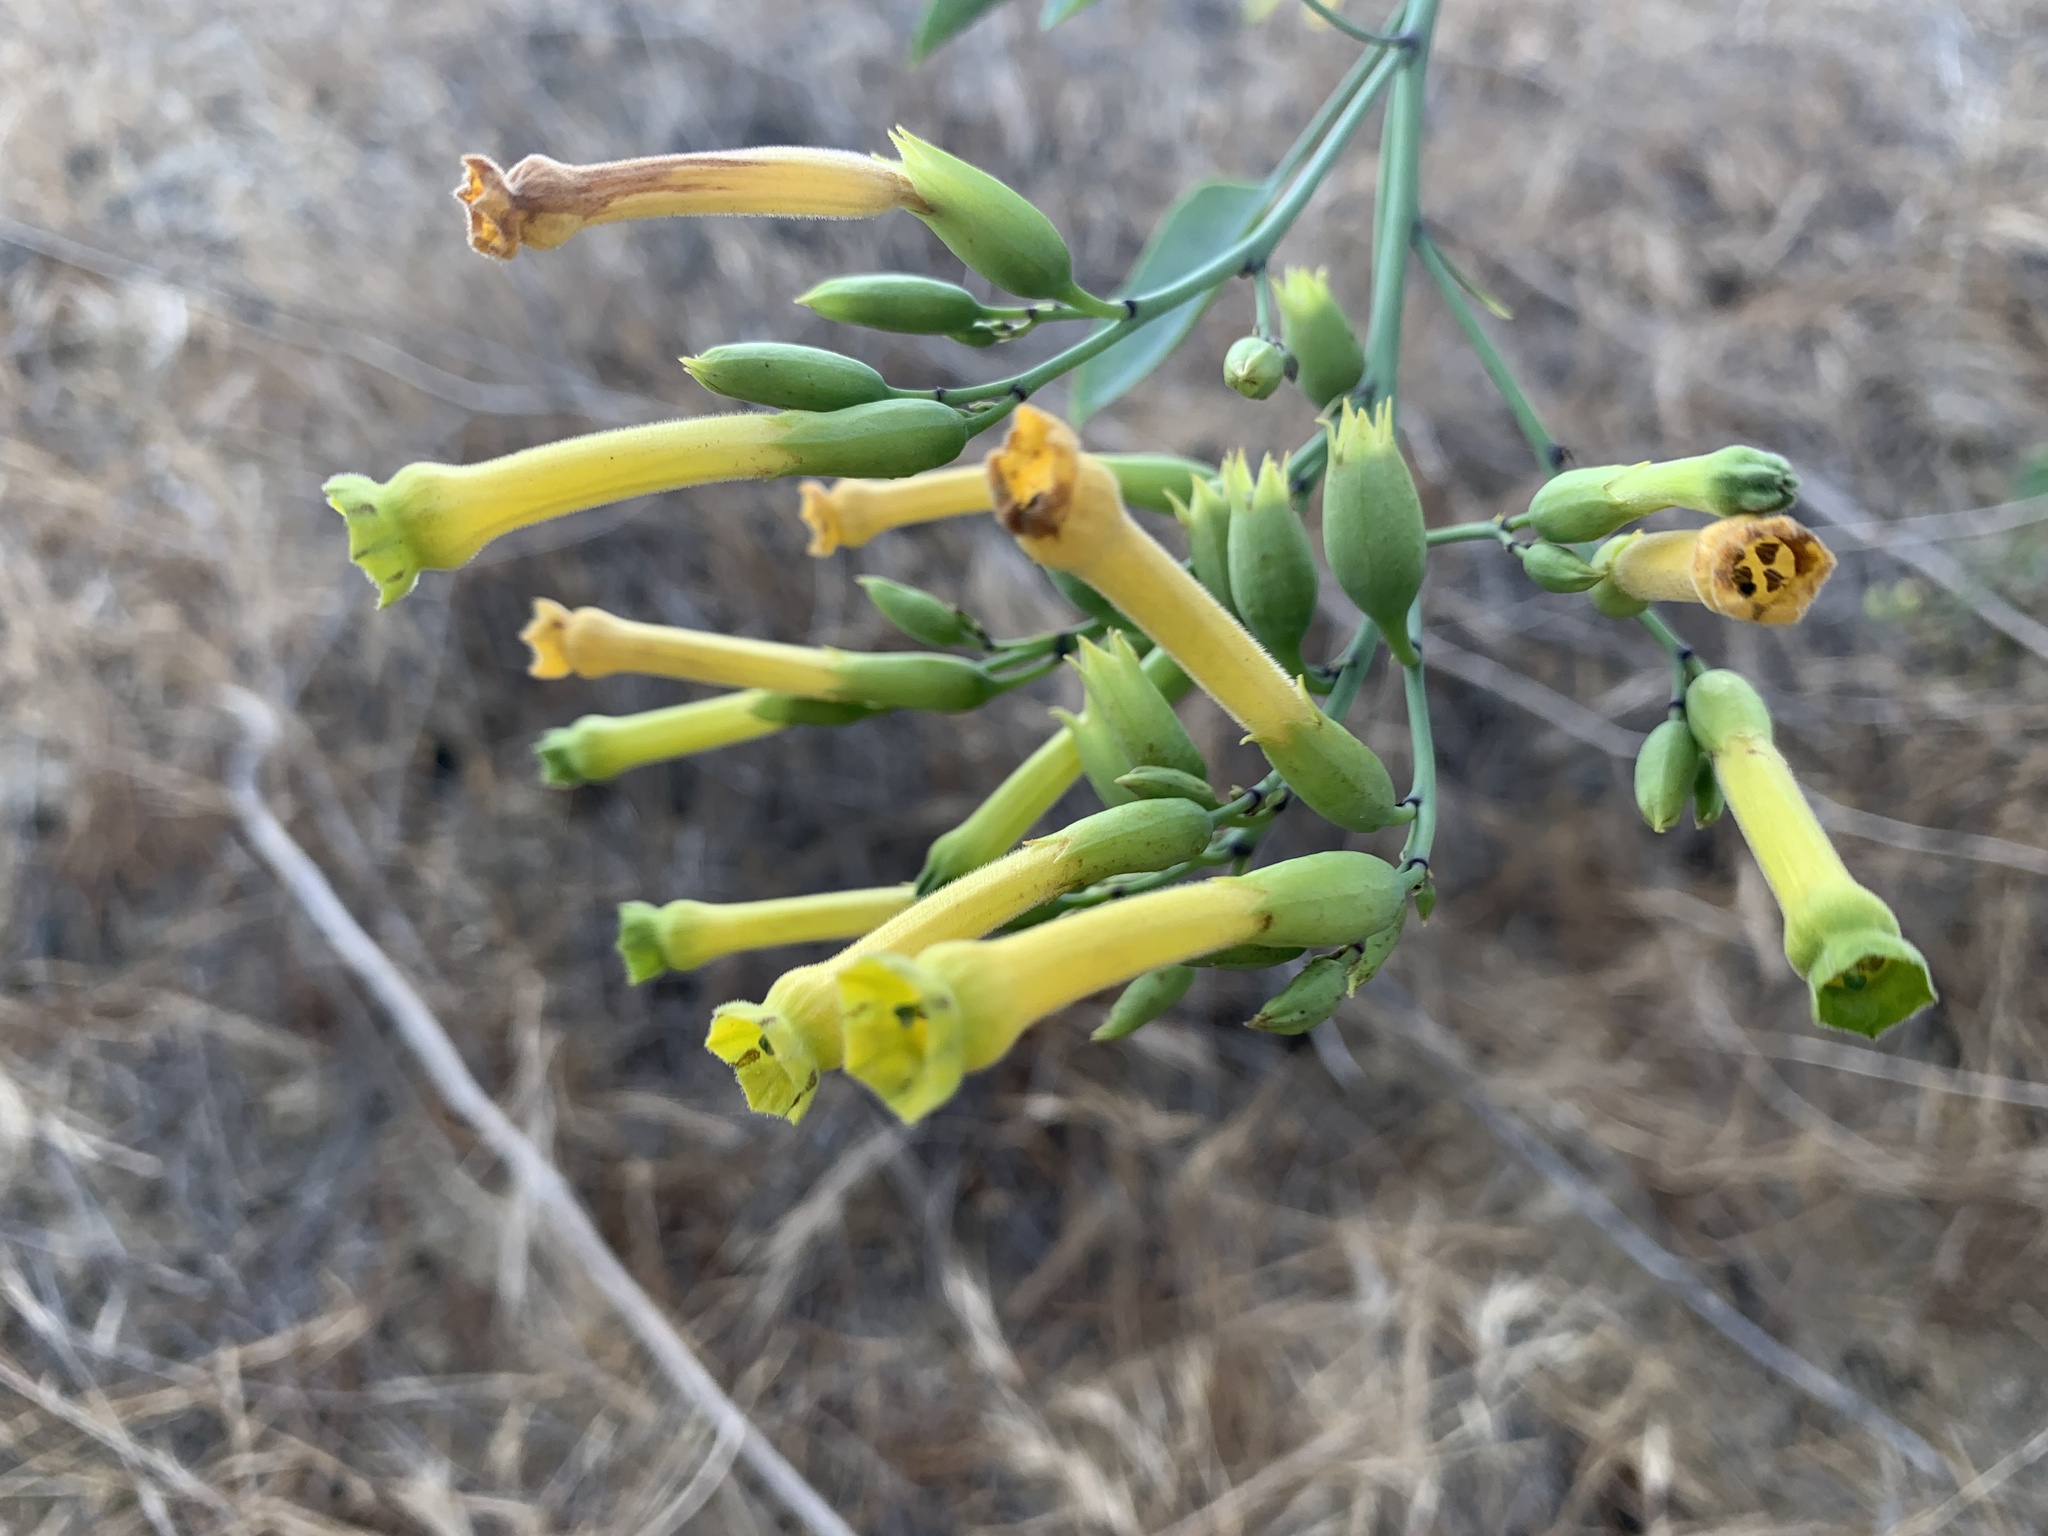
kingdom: Plantae
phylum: Tracheophyta
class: Magnoliopsida
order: Solanales
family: Solanaceae
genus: Nicotiana
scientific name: Nicotiana glauca
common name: Tree tobacco
